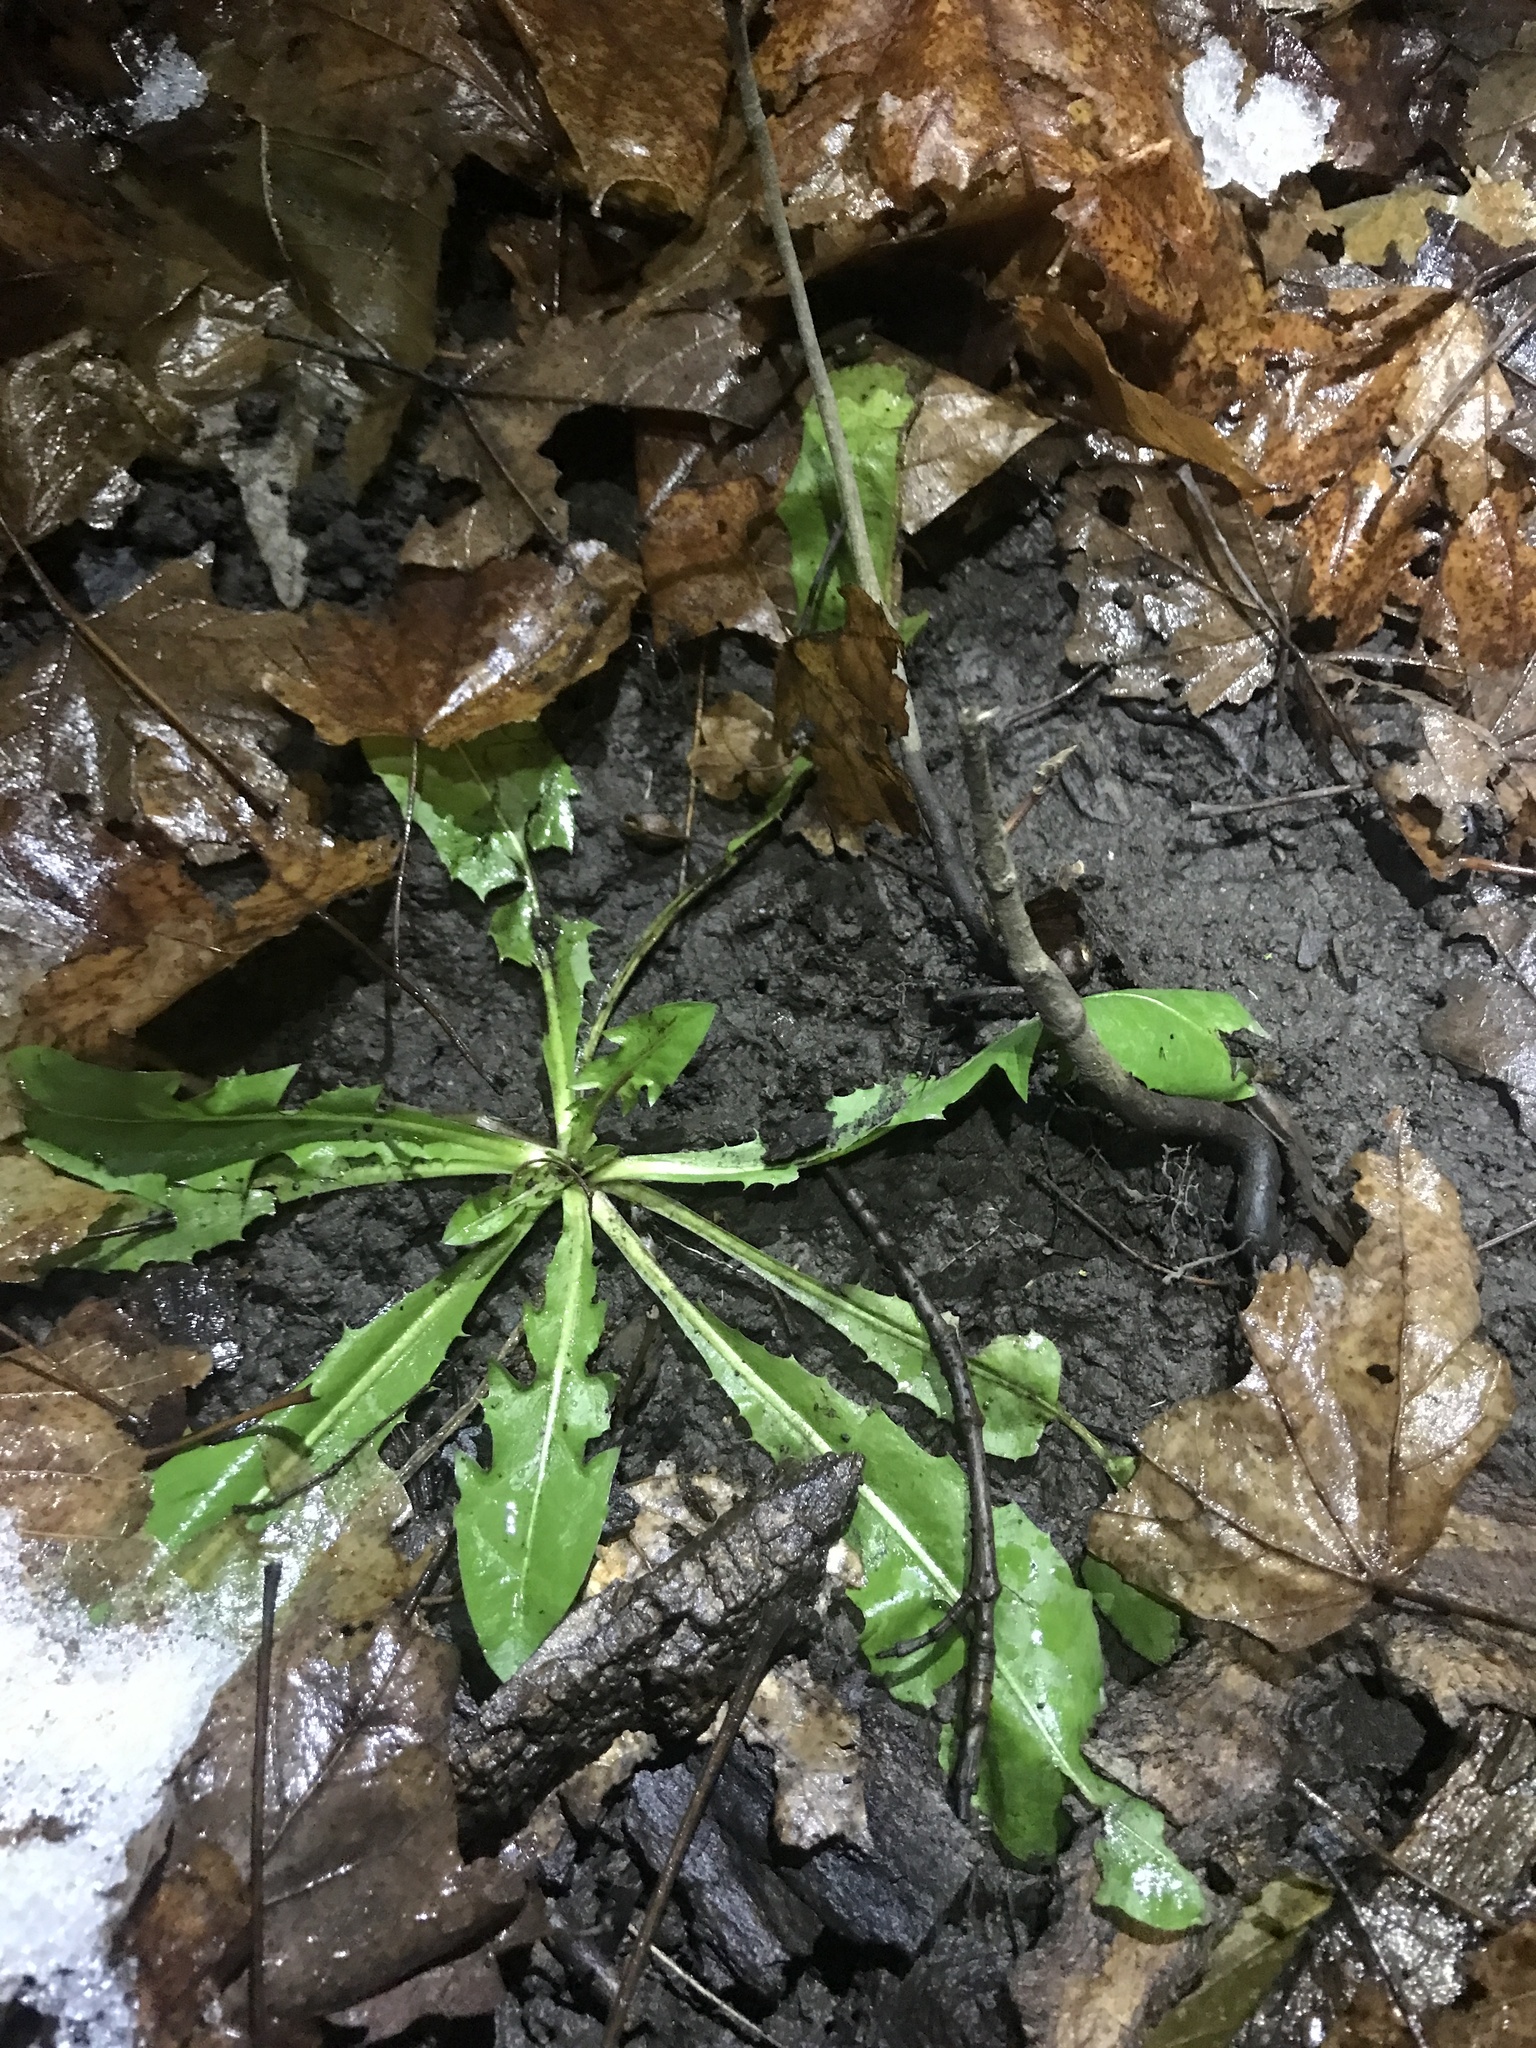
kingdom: Plantae
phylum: Tracheophyta
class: Magnoliopsida
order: Asterales
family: Asteraceae
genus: Taraxacum
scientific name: Taraxacum officinale
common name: Common dandelion
